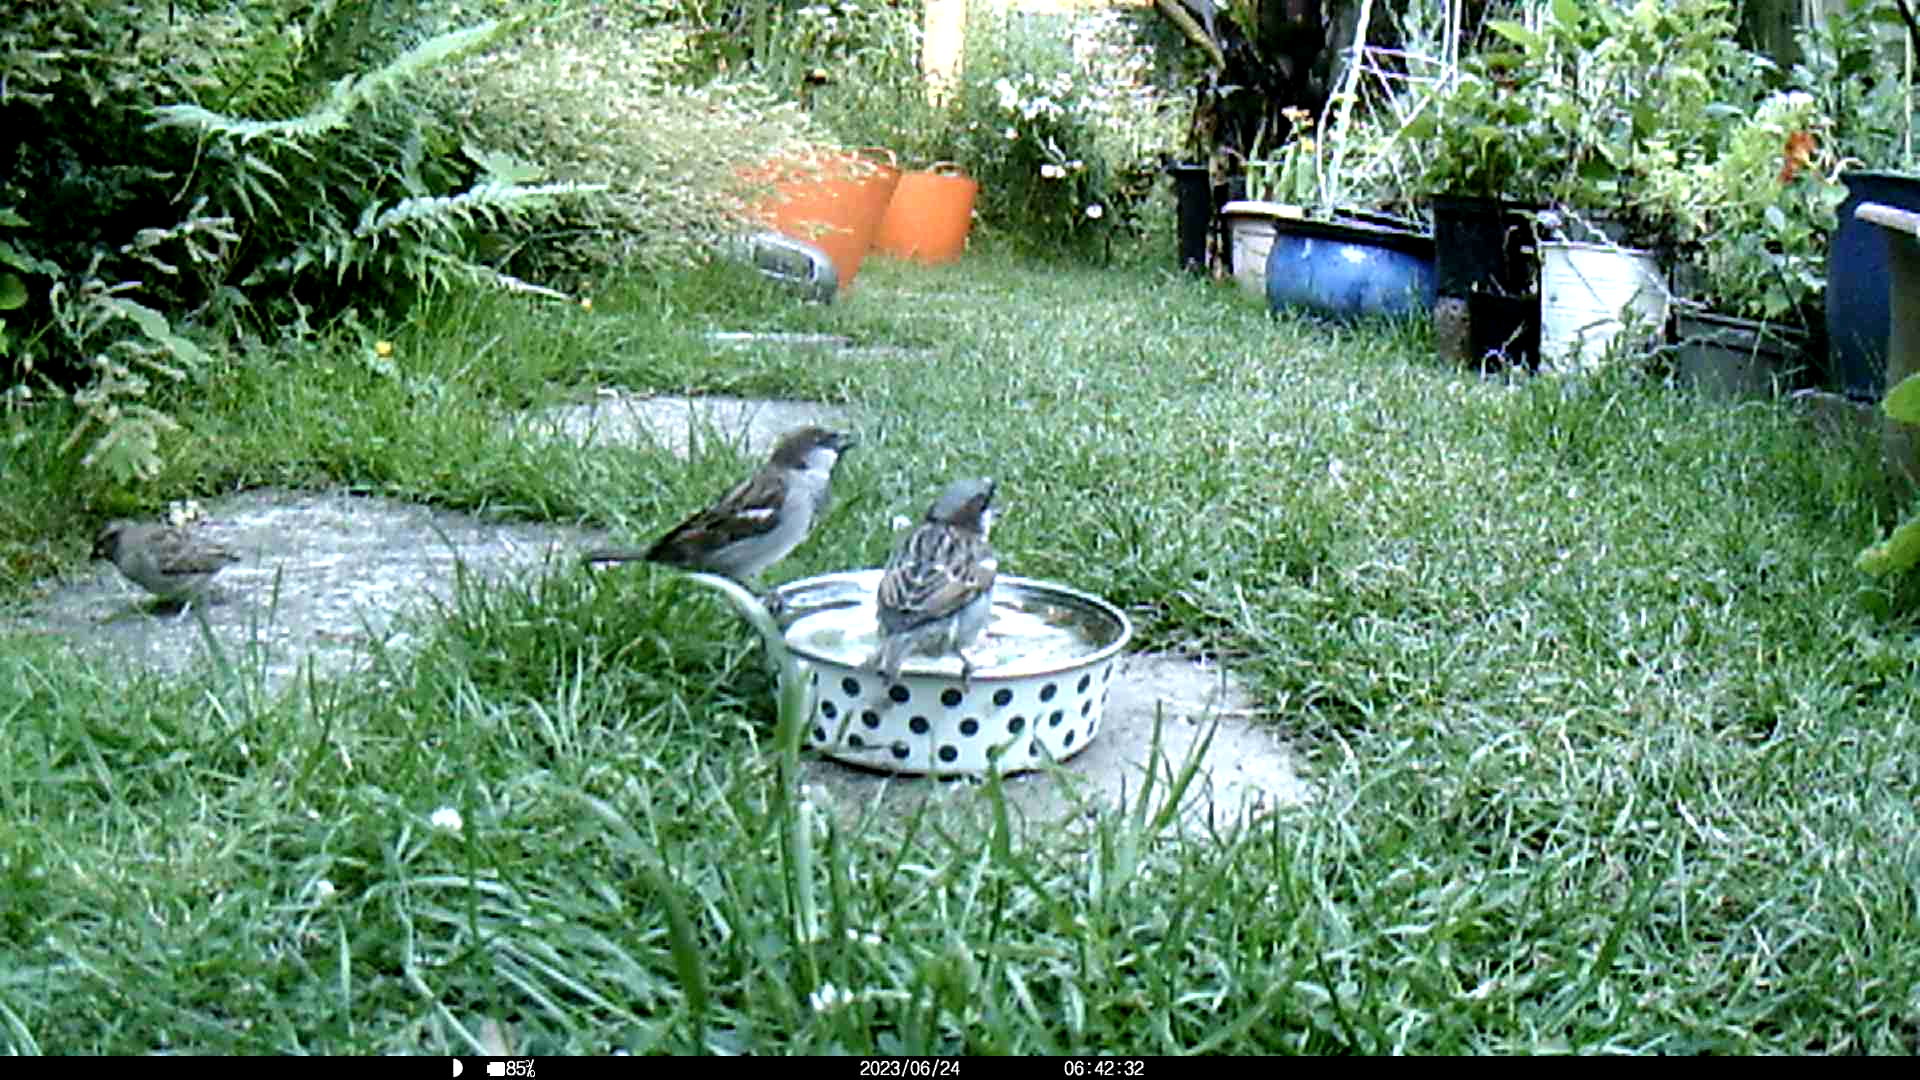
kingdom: Animalia
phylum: Chordata
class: Aves
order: Passeriformes
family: Passeridae
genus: Passer
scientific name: Passer domesticus
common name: House sparrow
